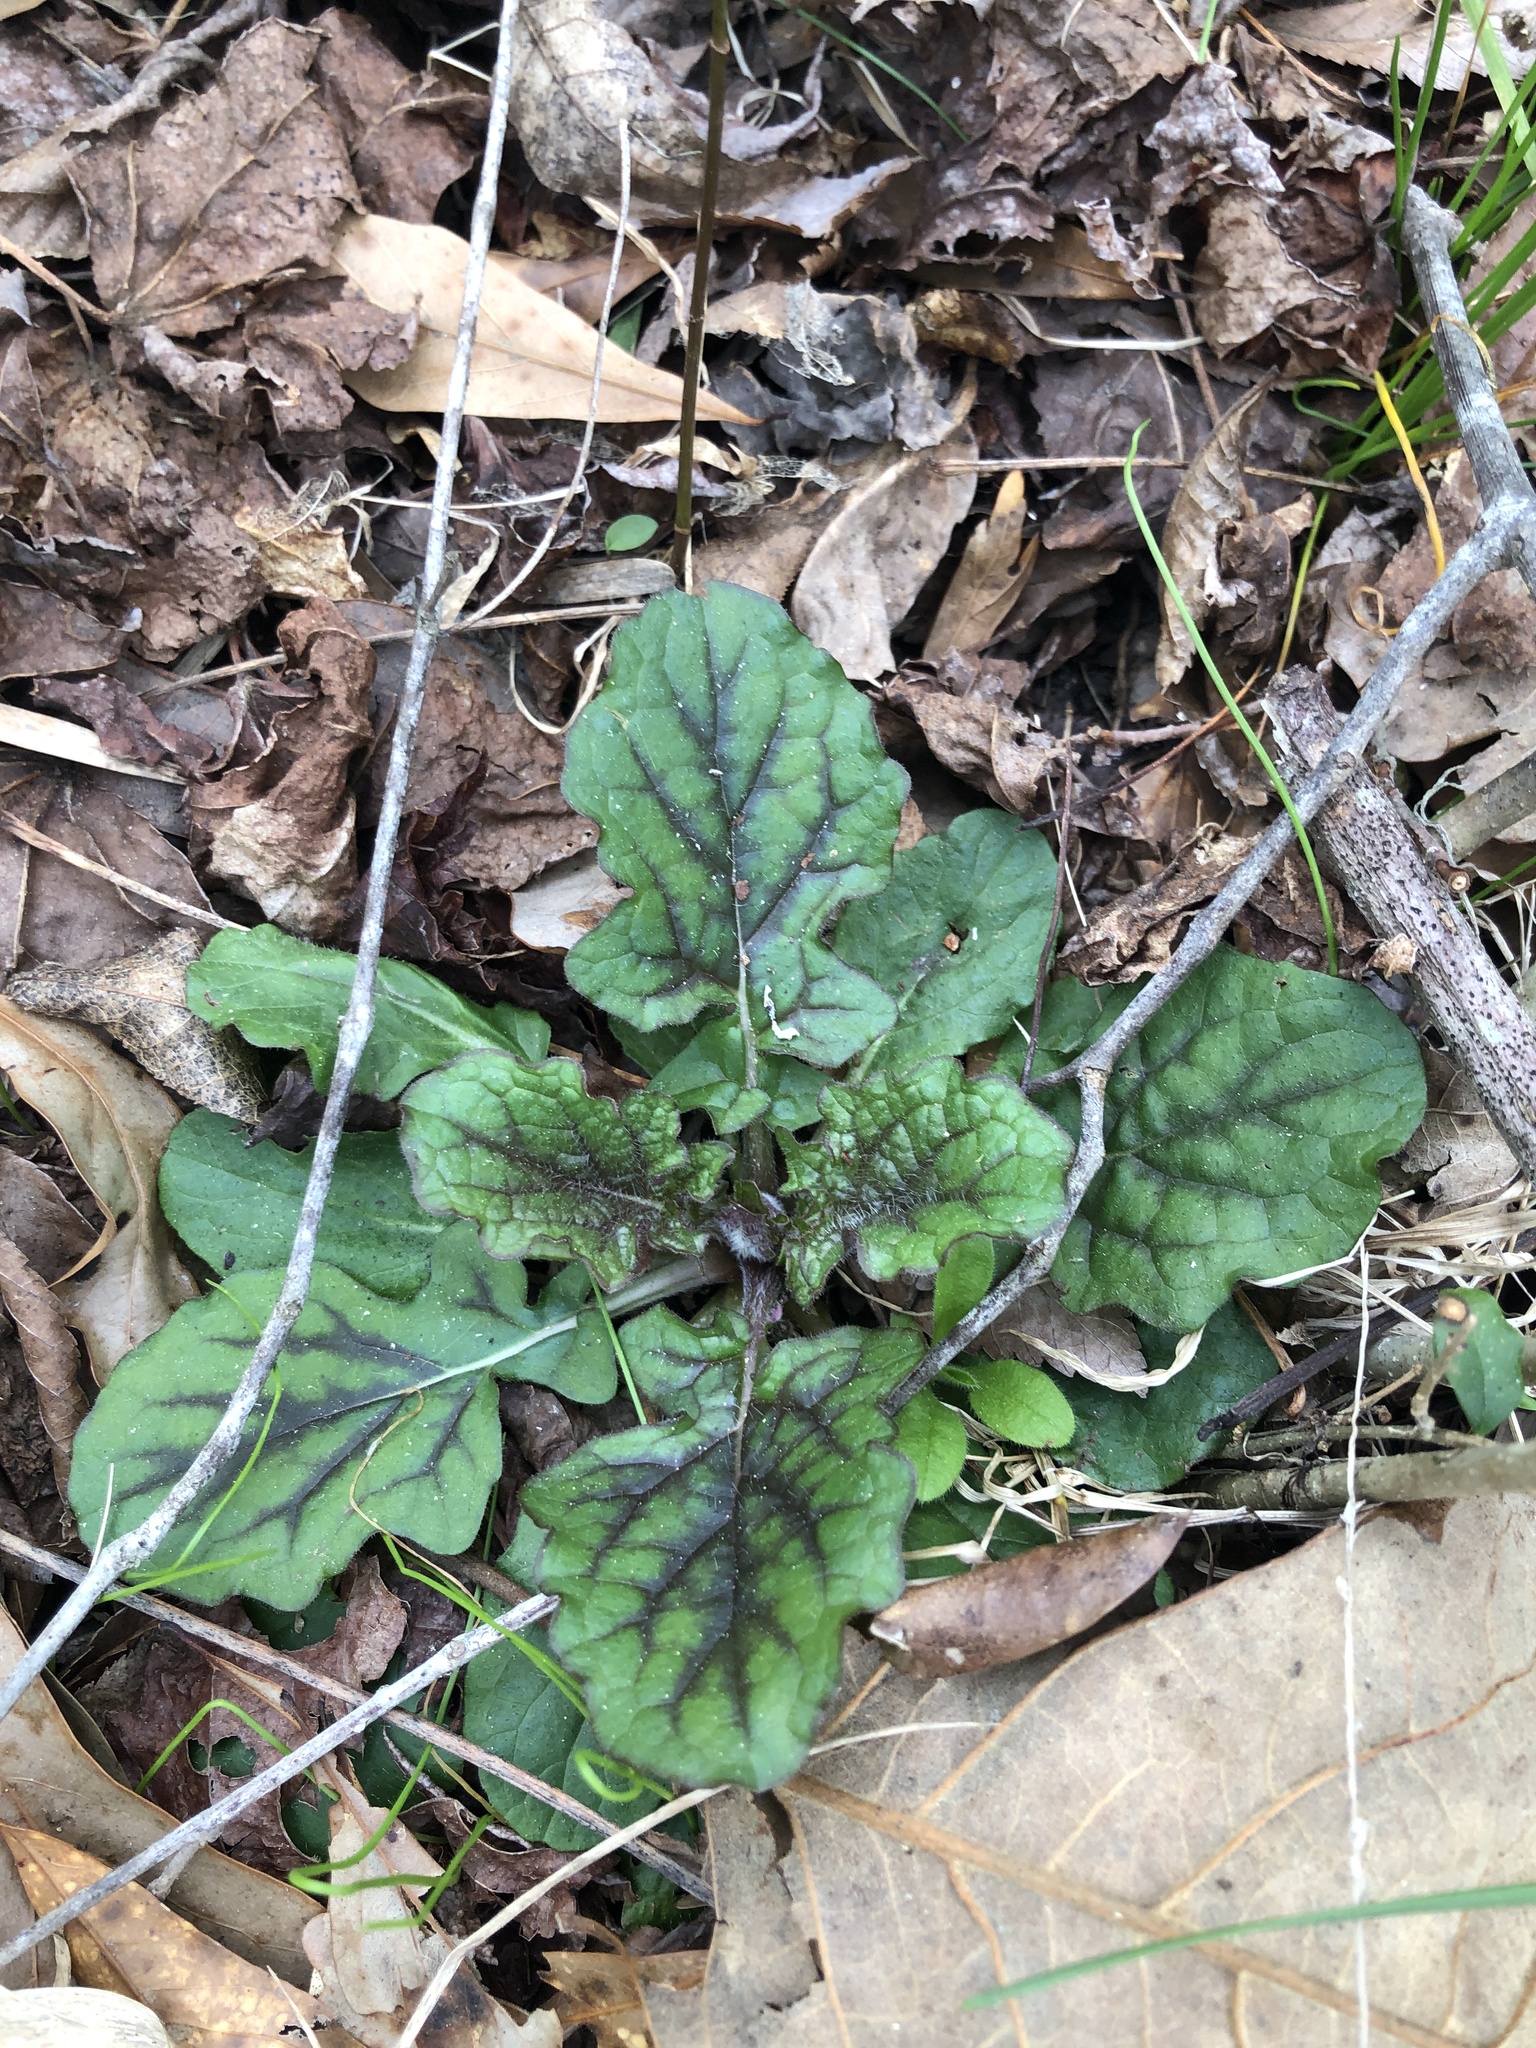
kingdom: Plantae
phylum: Tracheophyta
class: Magnoliopsida
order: Lamiales
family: Lamiaceae
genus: Salvia
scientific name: Salvia lyrata
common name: Cancerweed
